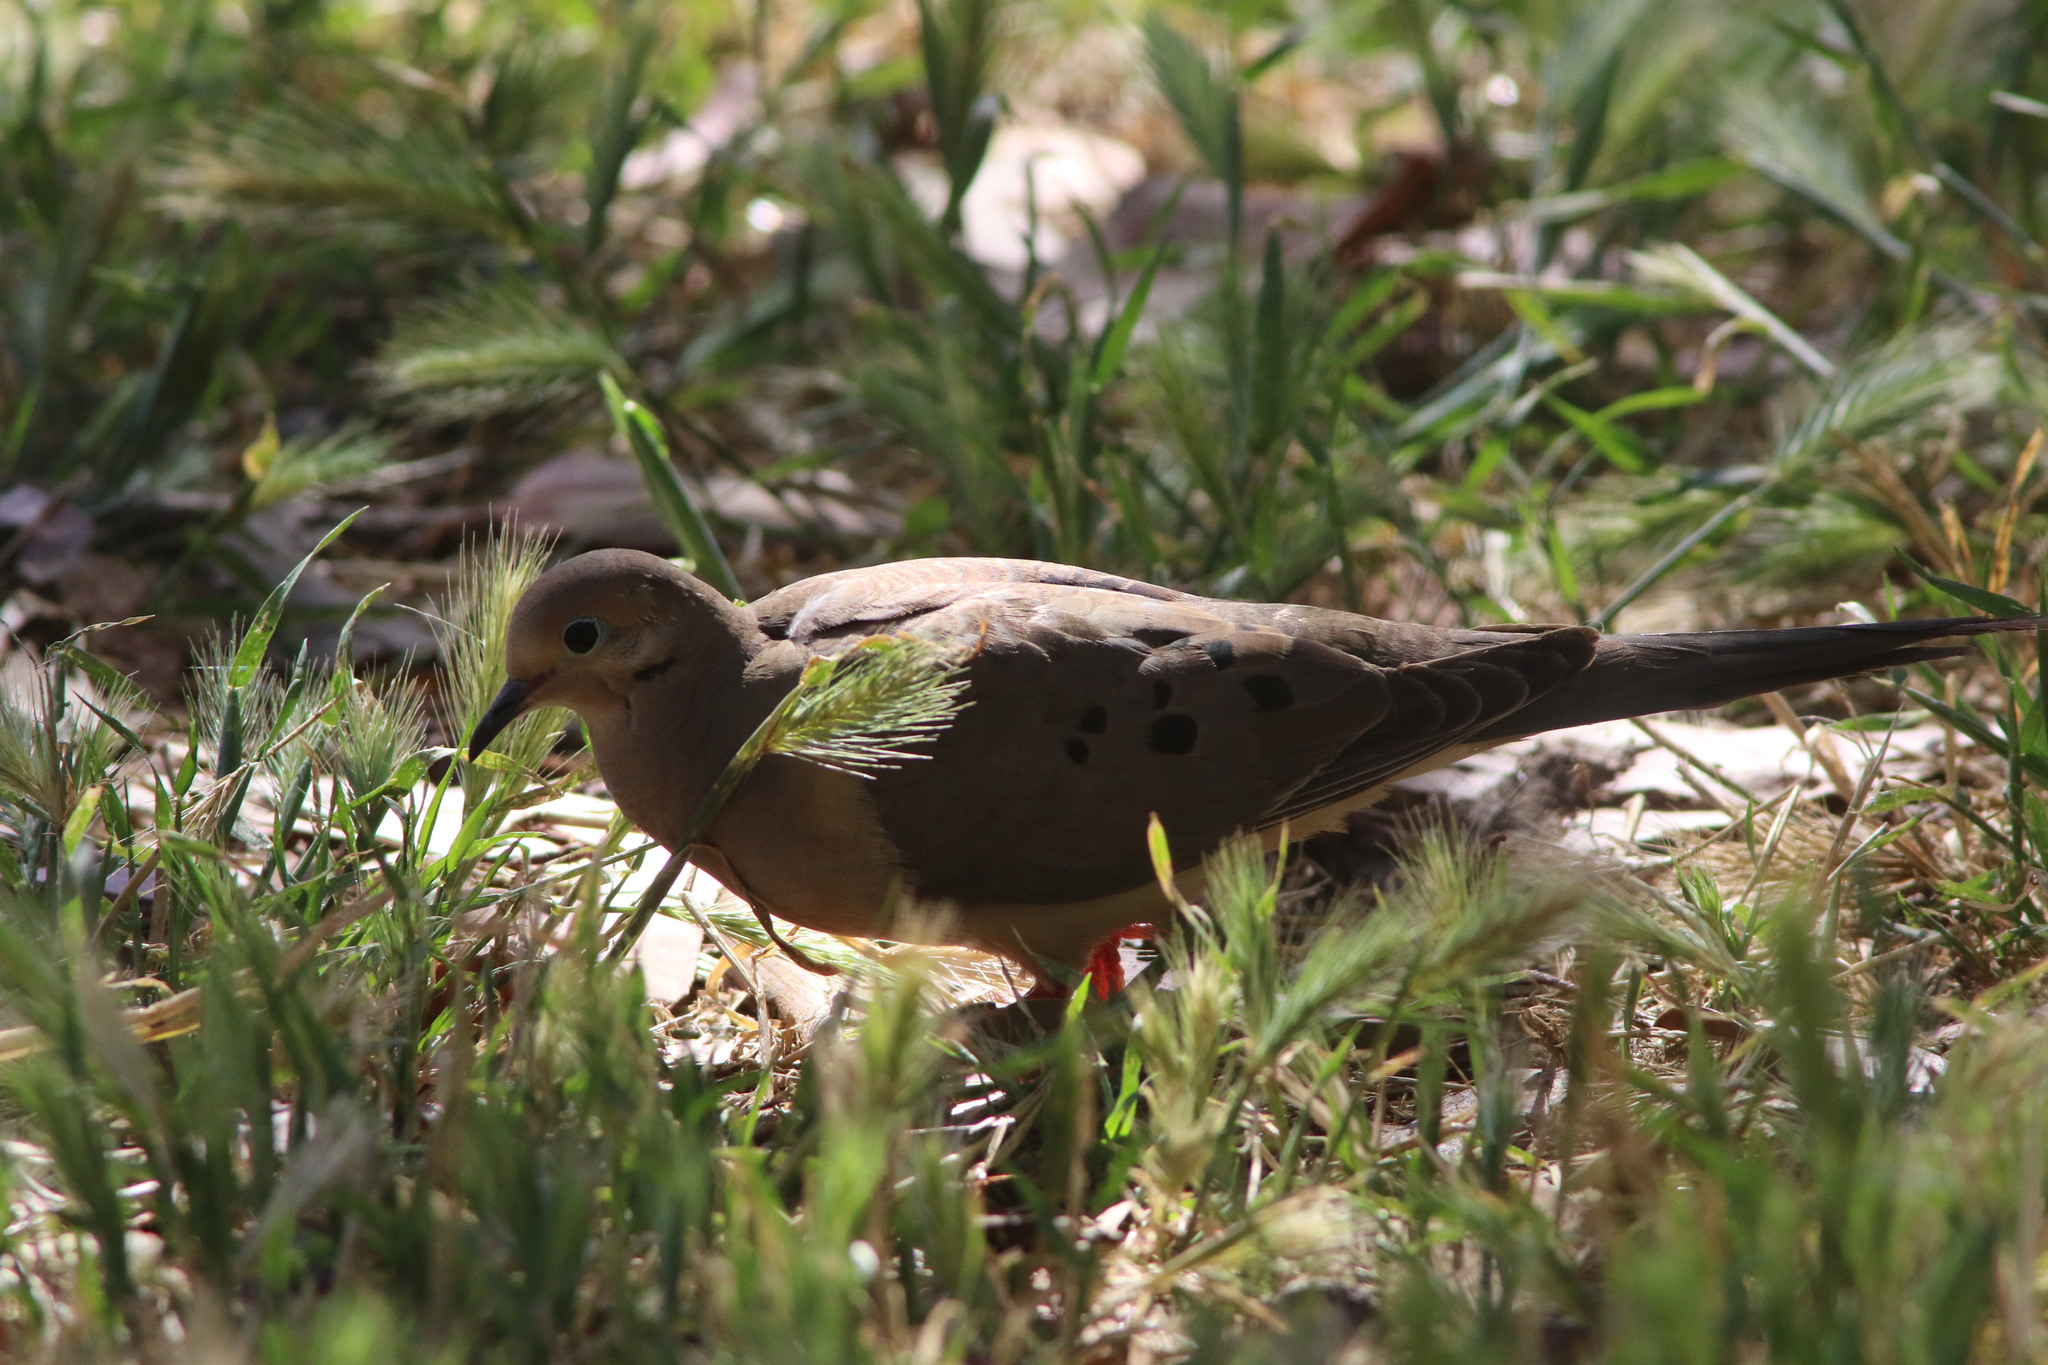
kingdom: Animalia
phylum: Chordata
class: Aves
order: Columbiformes
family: Columbidae
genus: Zenaida
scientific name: Zenaida macroura
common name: Mourning dove
